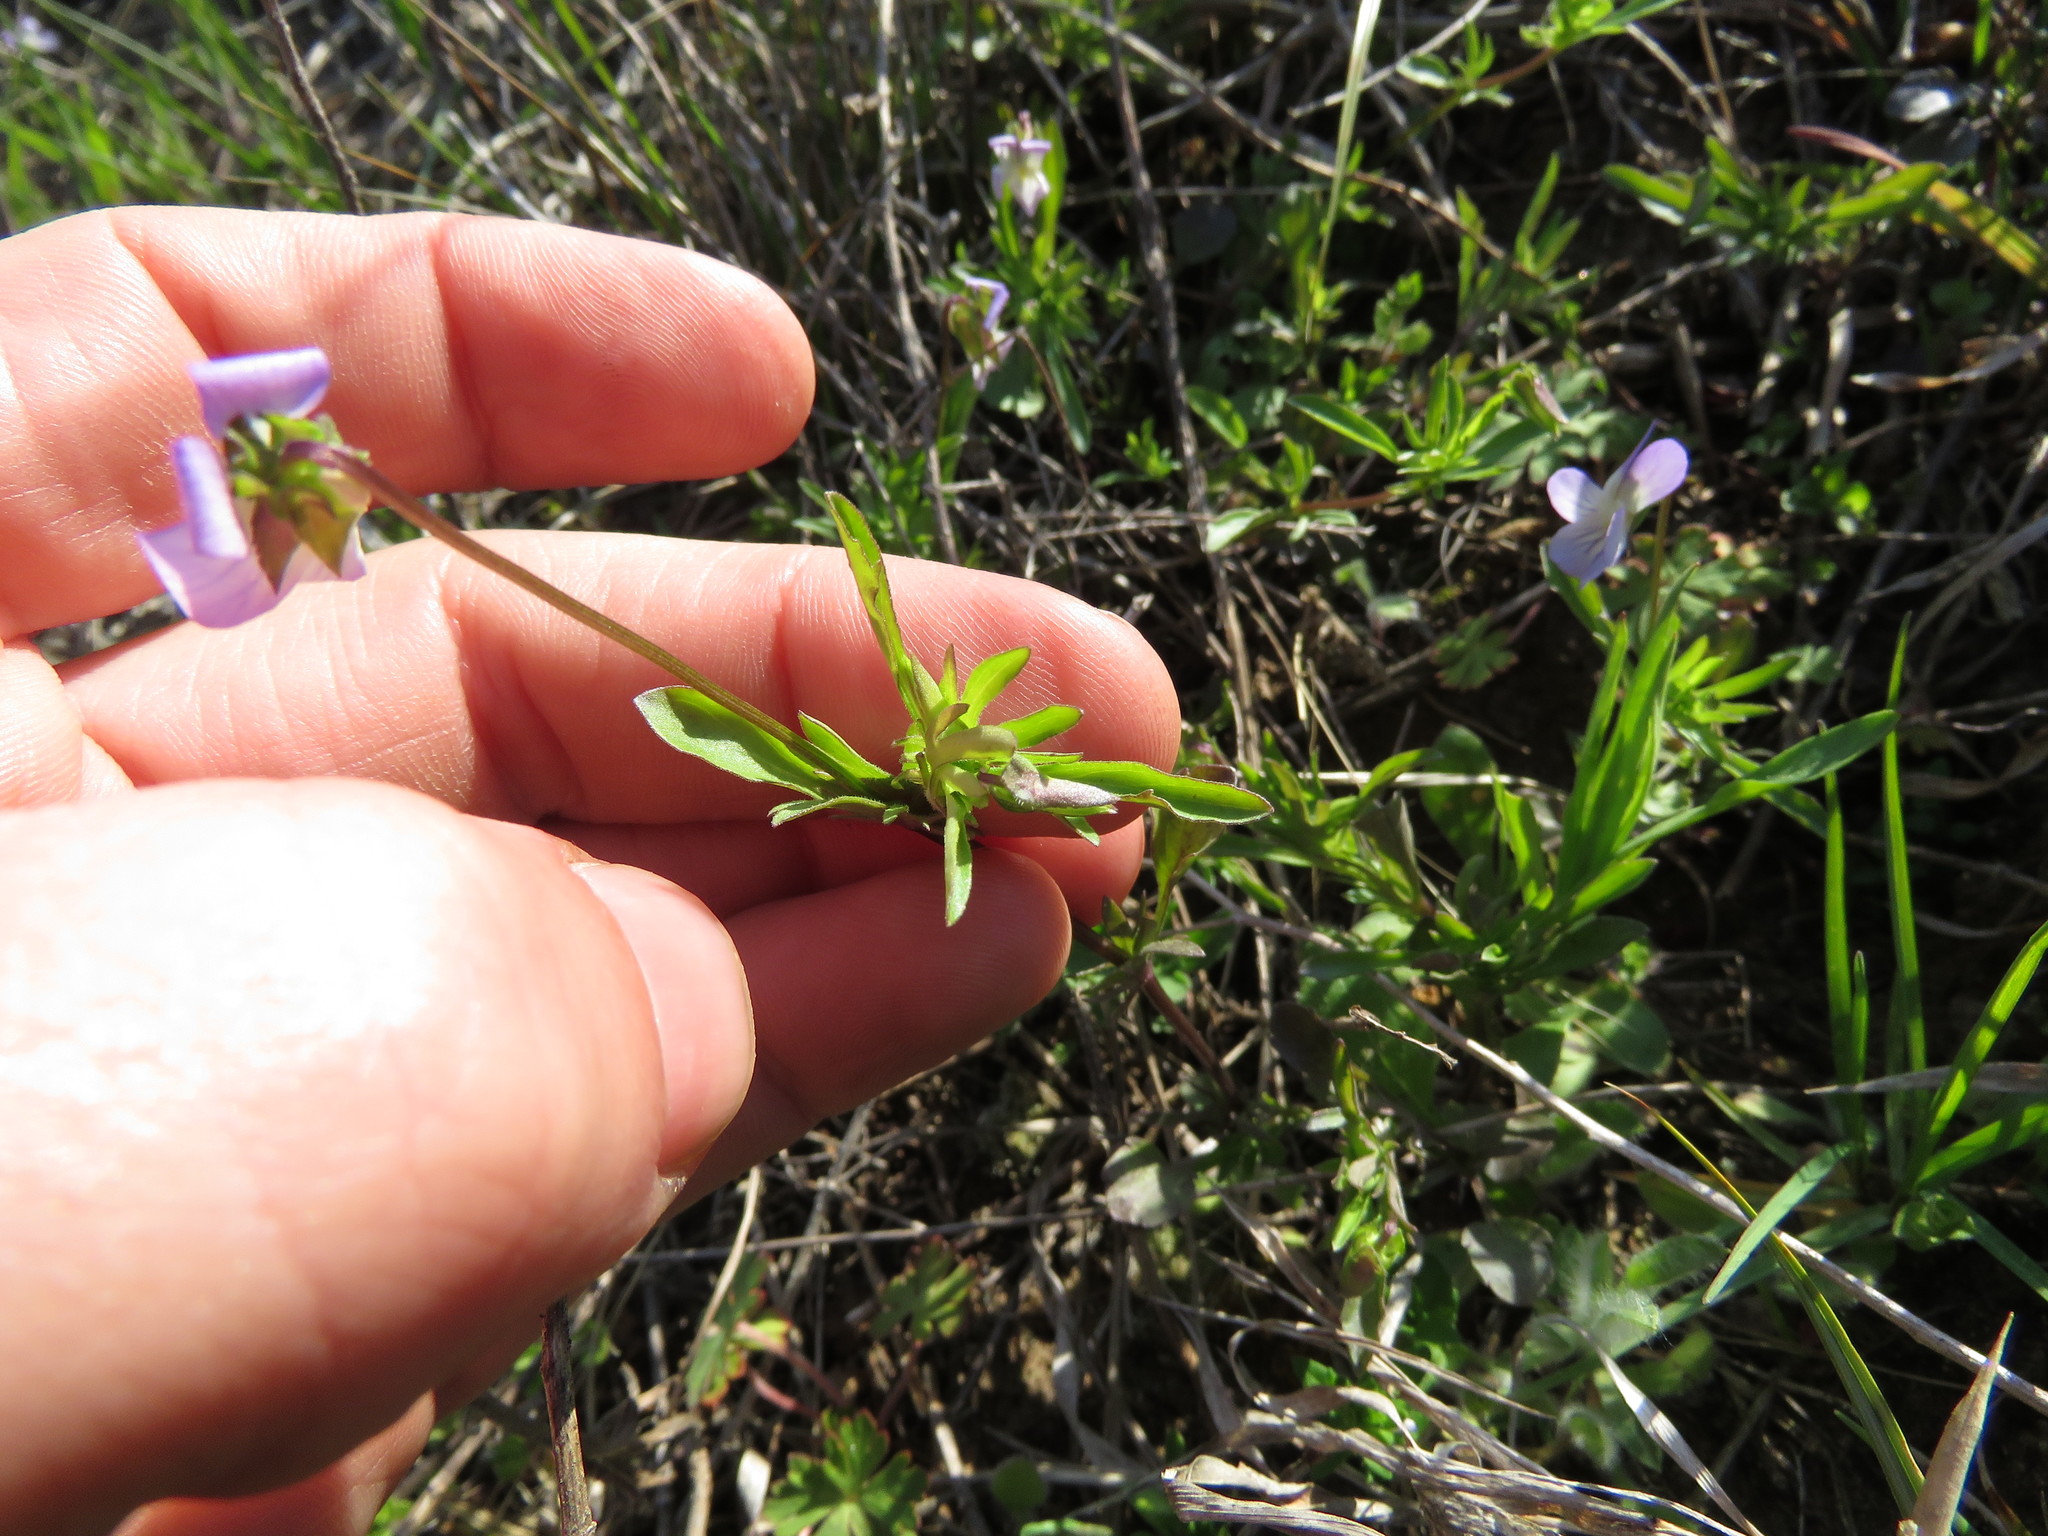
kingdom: Plantae
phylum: Tracheophyta
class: Magnoliopsida
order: Malpighiales
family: Violaceae
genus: Viola
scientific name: Viola rafinesquei
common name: American field pansy
